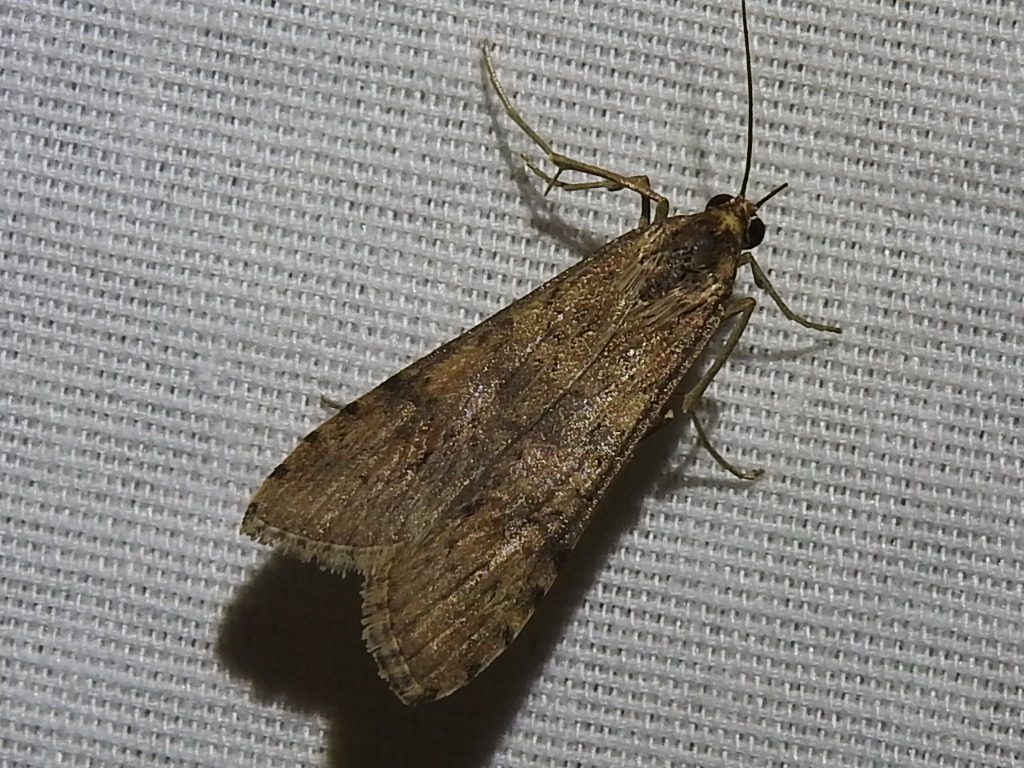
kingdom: Animalia
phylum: Arthropoda
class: Insecta
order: Lepidoptera
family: Crambidae
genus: Nomophila
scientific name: Nomophila nearctica
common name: American rush veneer
